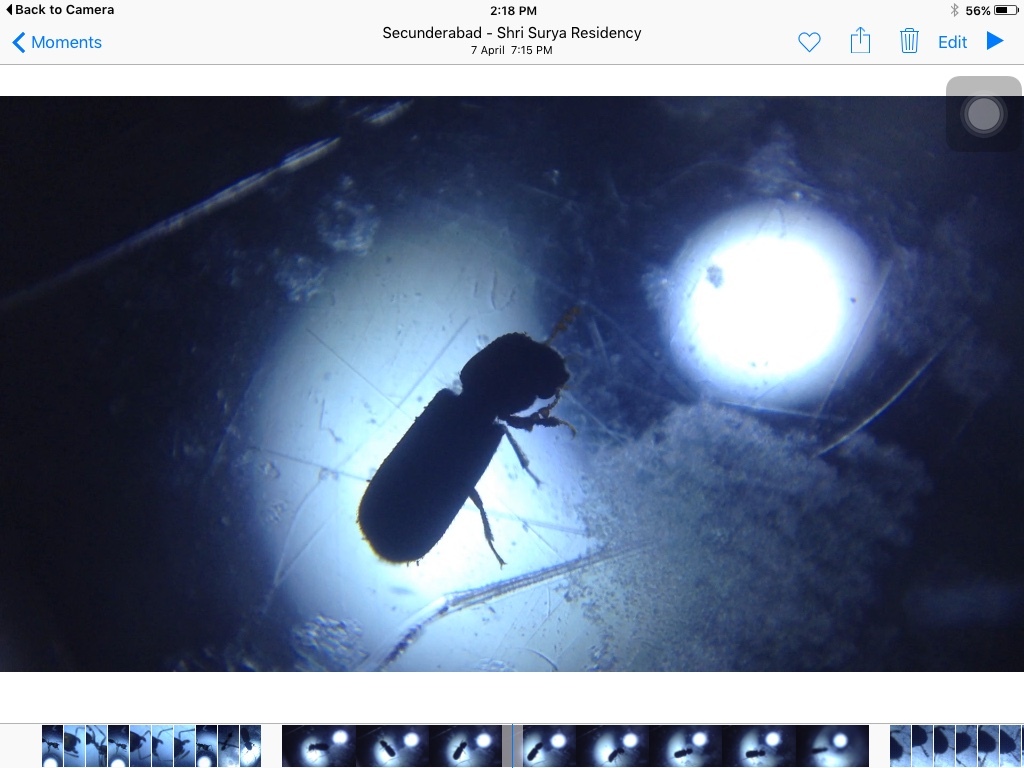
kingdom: Animalia
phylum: Arthropoda
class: Insecta
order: Coleoptera
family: Bostrichidae
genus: Dinoderus
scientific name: Dinoderus minutus
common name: Bamboo powderpost beetle
